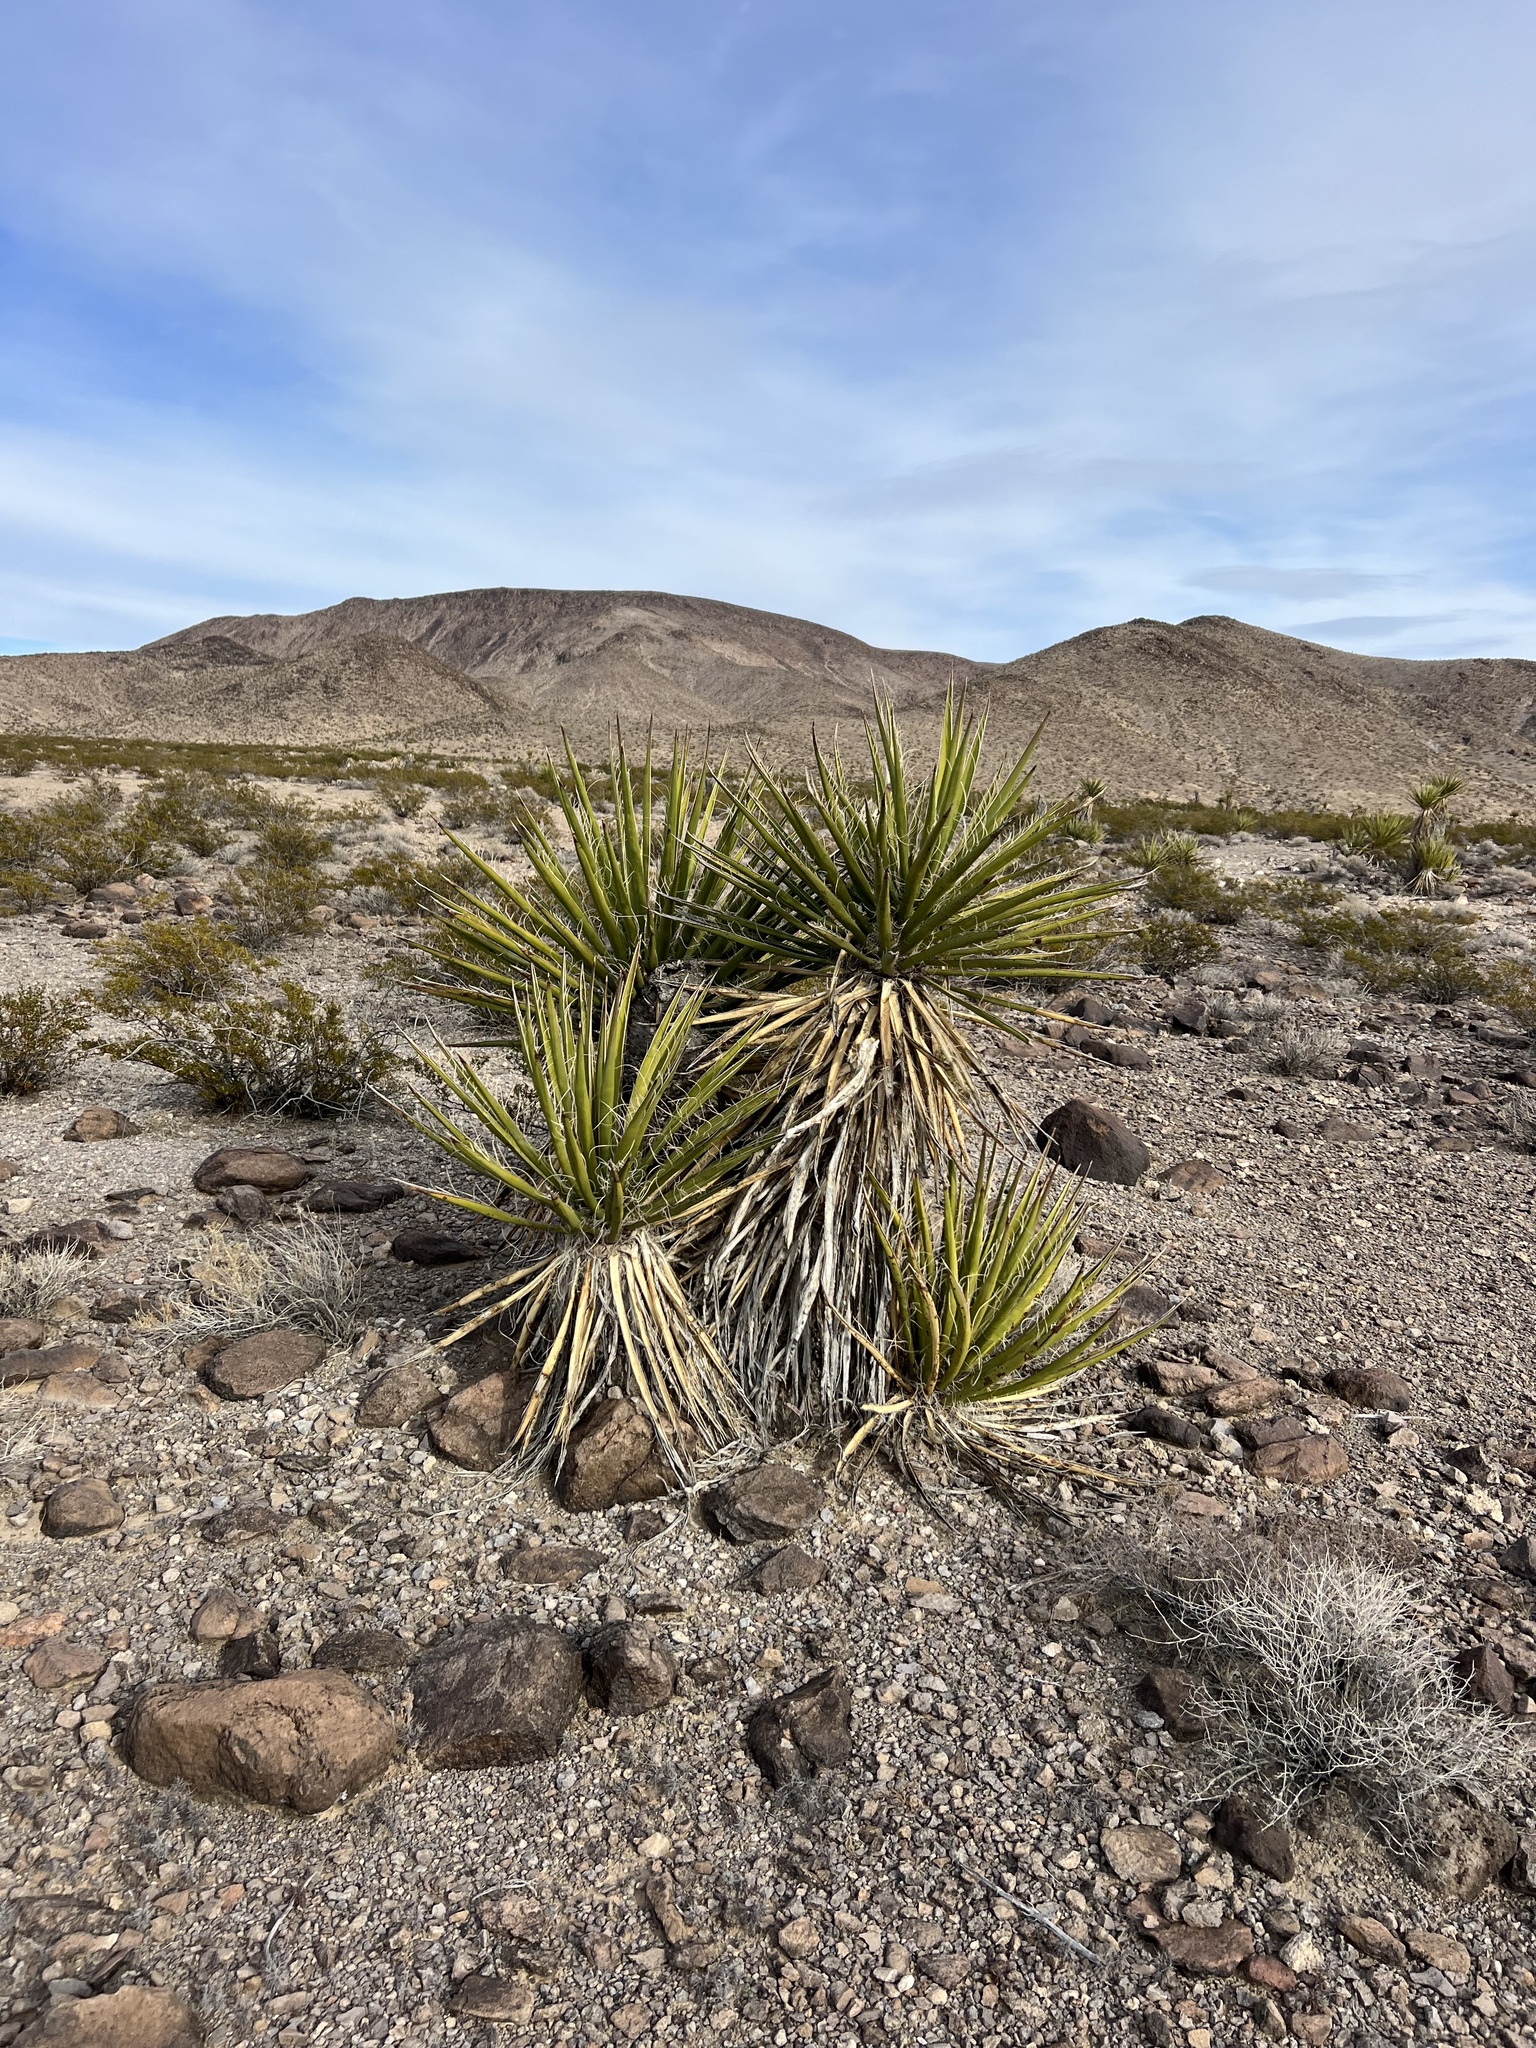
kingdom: Plantae
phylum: Tracheophyta
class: Liliopsida
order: Asparagales
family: Asparagaceae
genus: Yucca
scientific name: Yucca schidigera
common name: Mojave yucca
